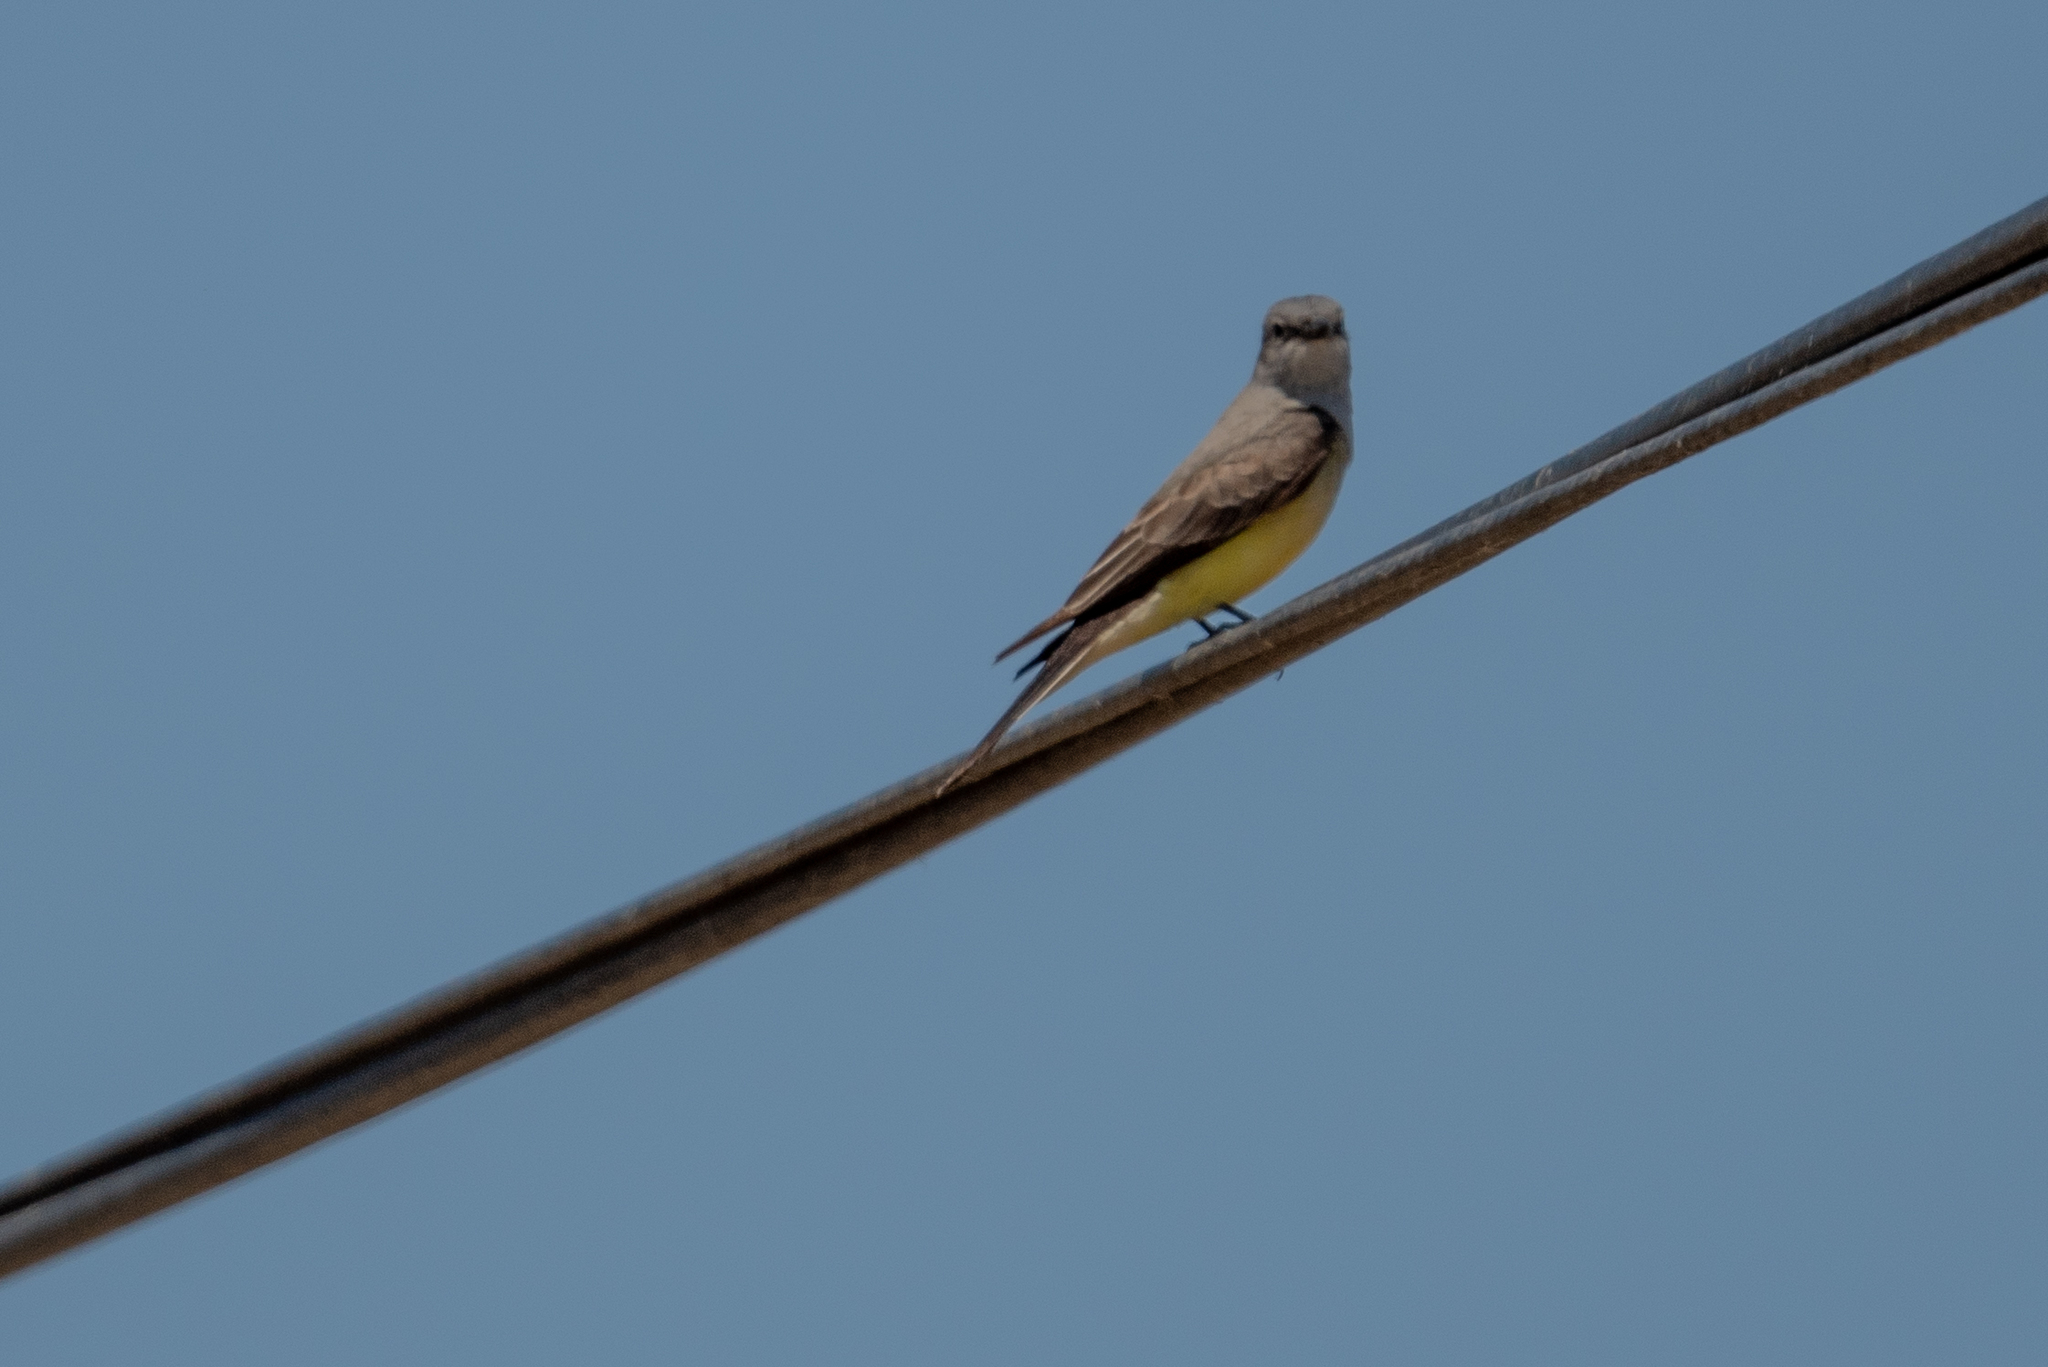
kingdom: Animalia
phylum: Chordata
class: Aves
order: Passeriformes
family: Tyrannidae
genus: Tyrannus
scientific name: Tyrannus verticalis
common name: Western kingbird
